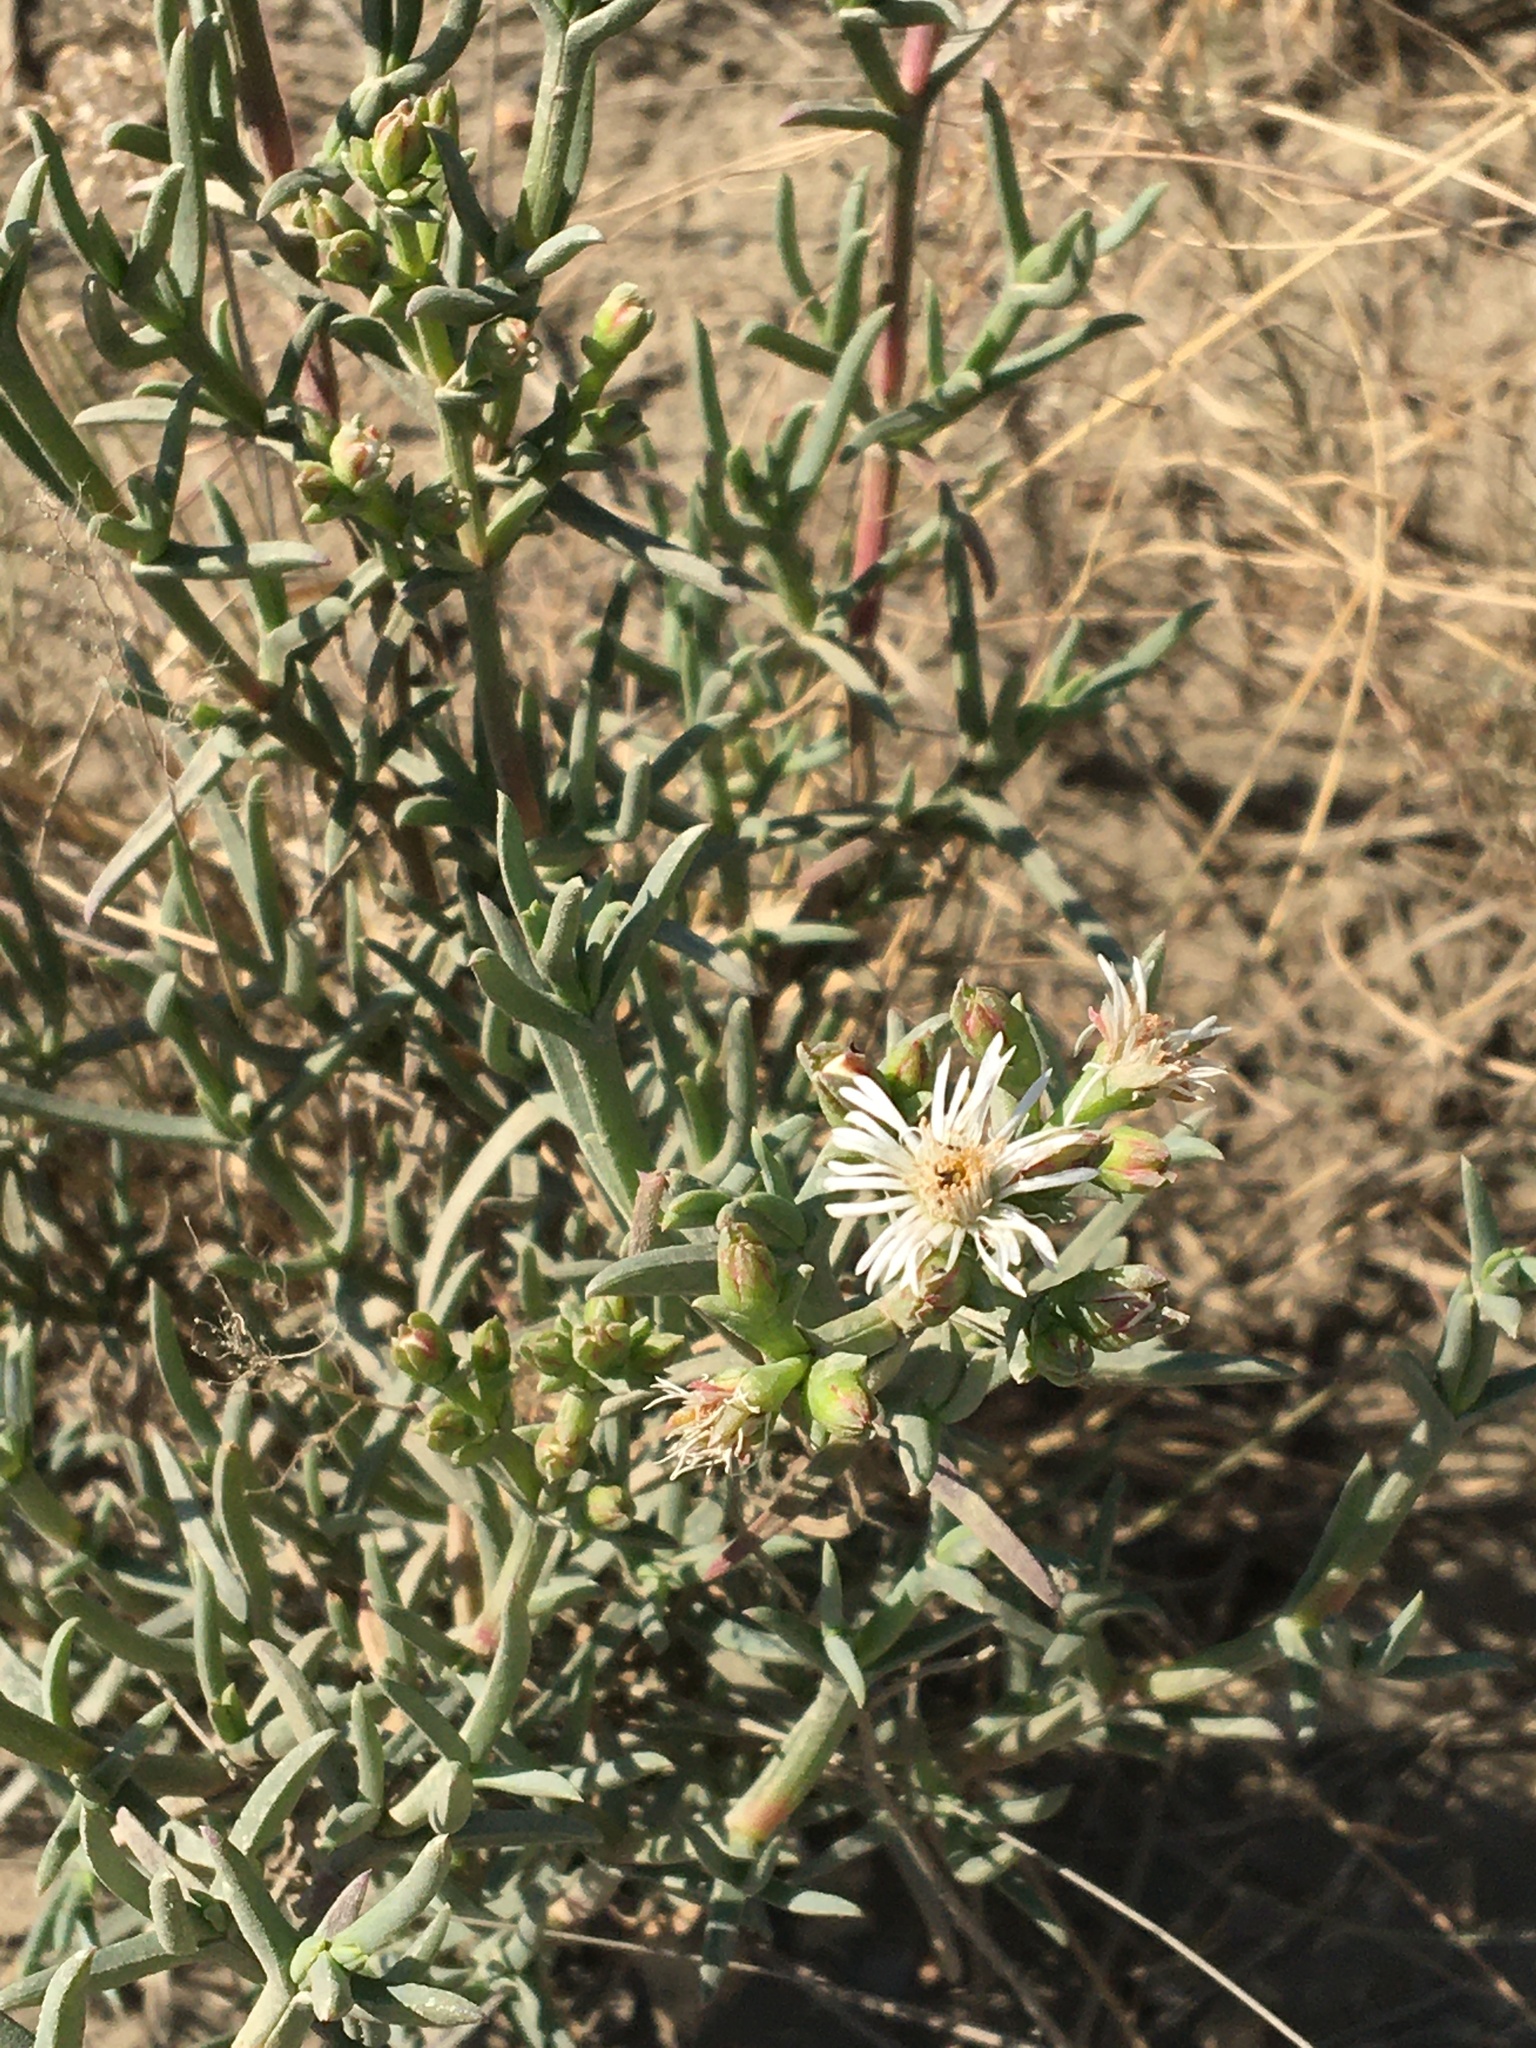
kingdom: Plantae
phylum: Tracheophyta
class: Magnoliopsida
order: Caryophyllales
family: Aizoaceae
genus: Ruschia
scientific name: Ruschia multiflora
